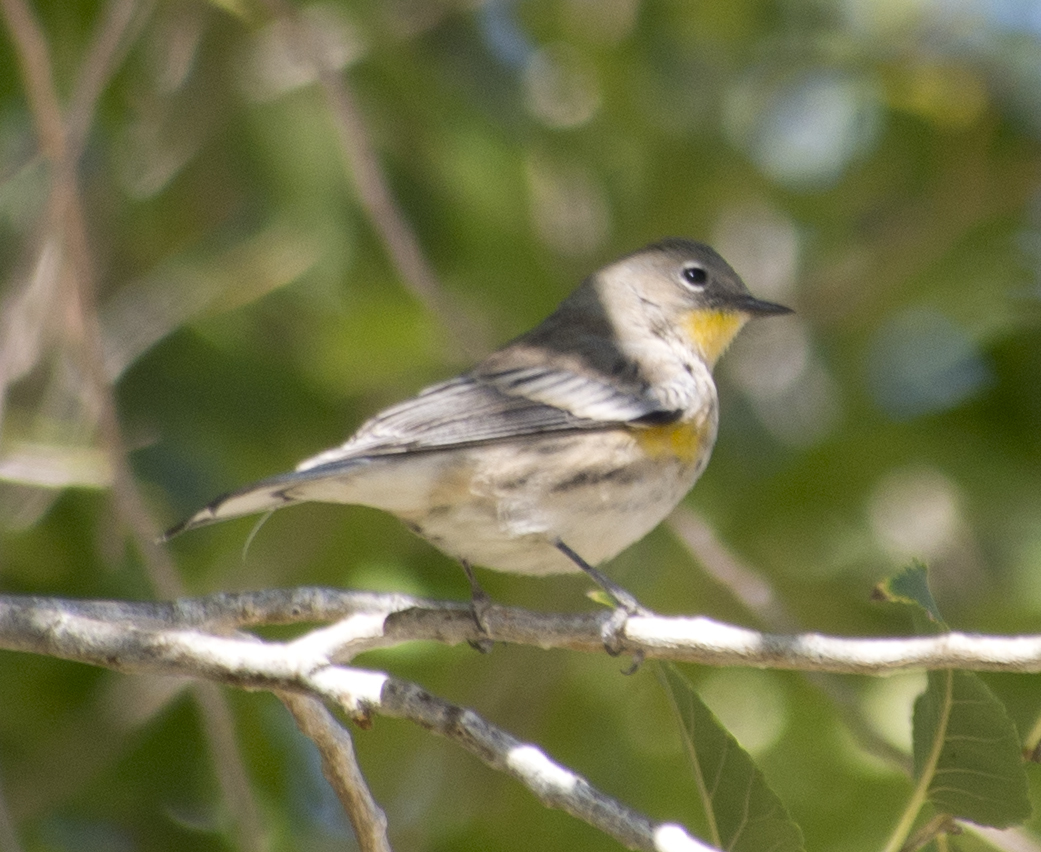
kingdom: Animalia
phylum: Chordata
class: Aves
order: Passeriformes
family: Parulidae
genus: Setophaga
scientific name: Setophaga auduboni
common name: Audubon's warbler
